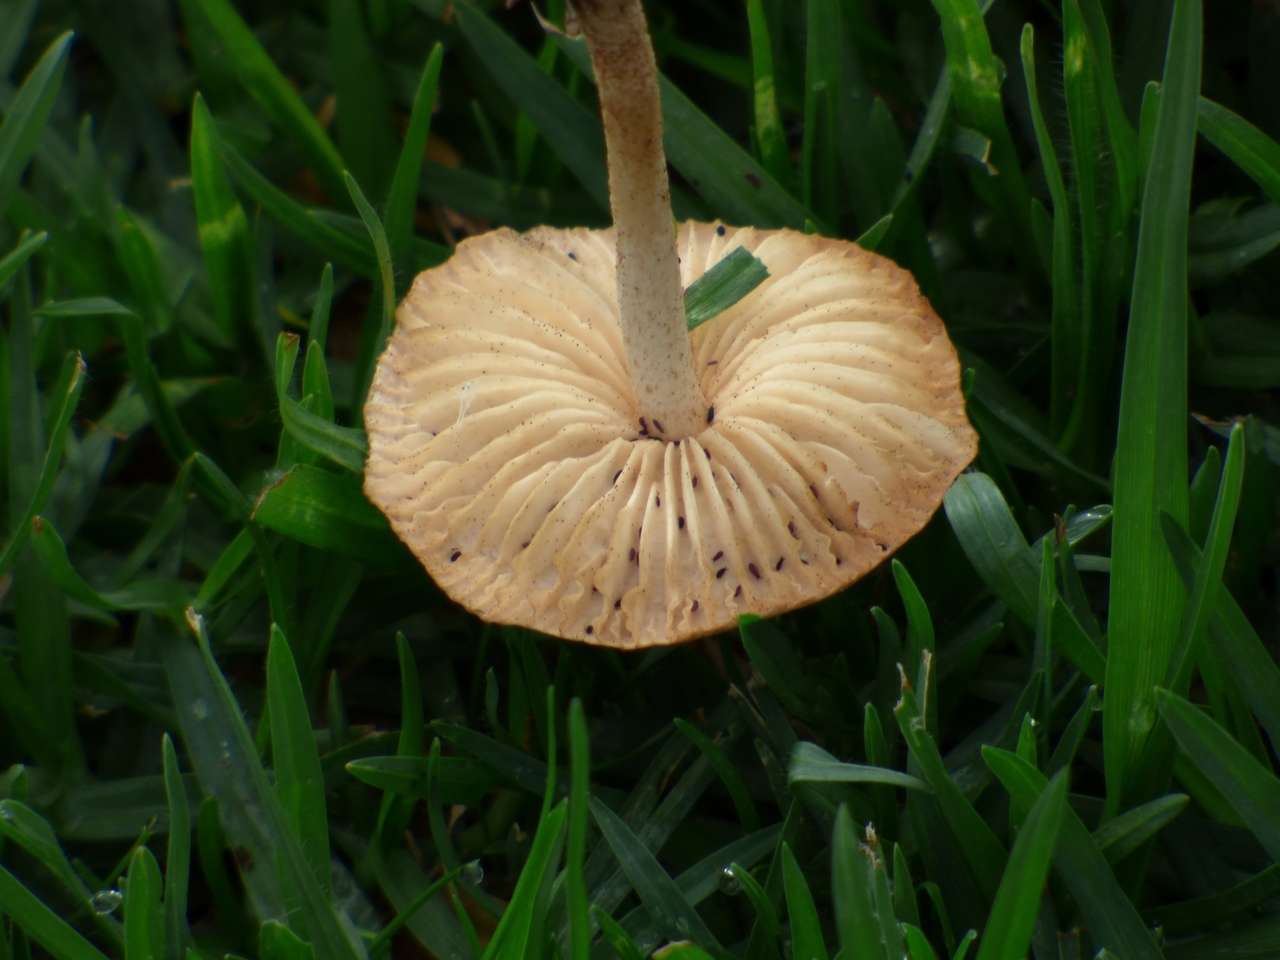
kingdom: Fungi
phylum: Basidiomycota
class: Agaricomycetes
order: Agaricales
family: Marasmiaceae
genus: Marasmius
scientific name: Marasmius oreades
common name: Fairy ring champignon
